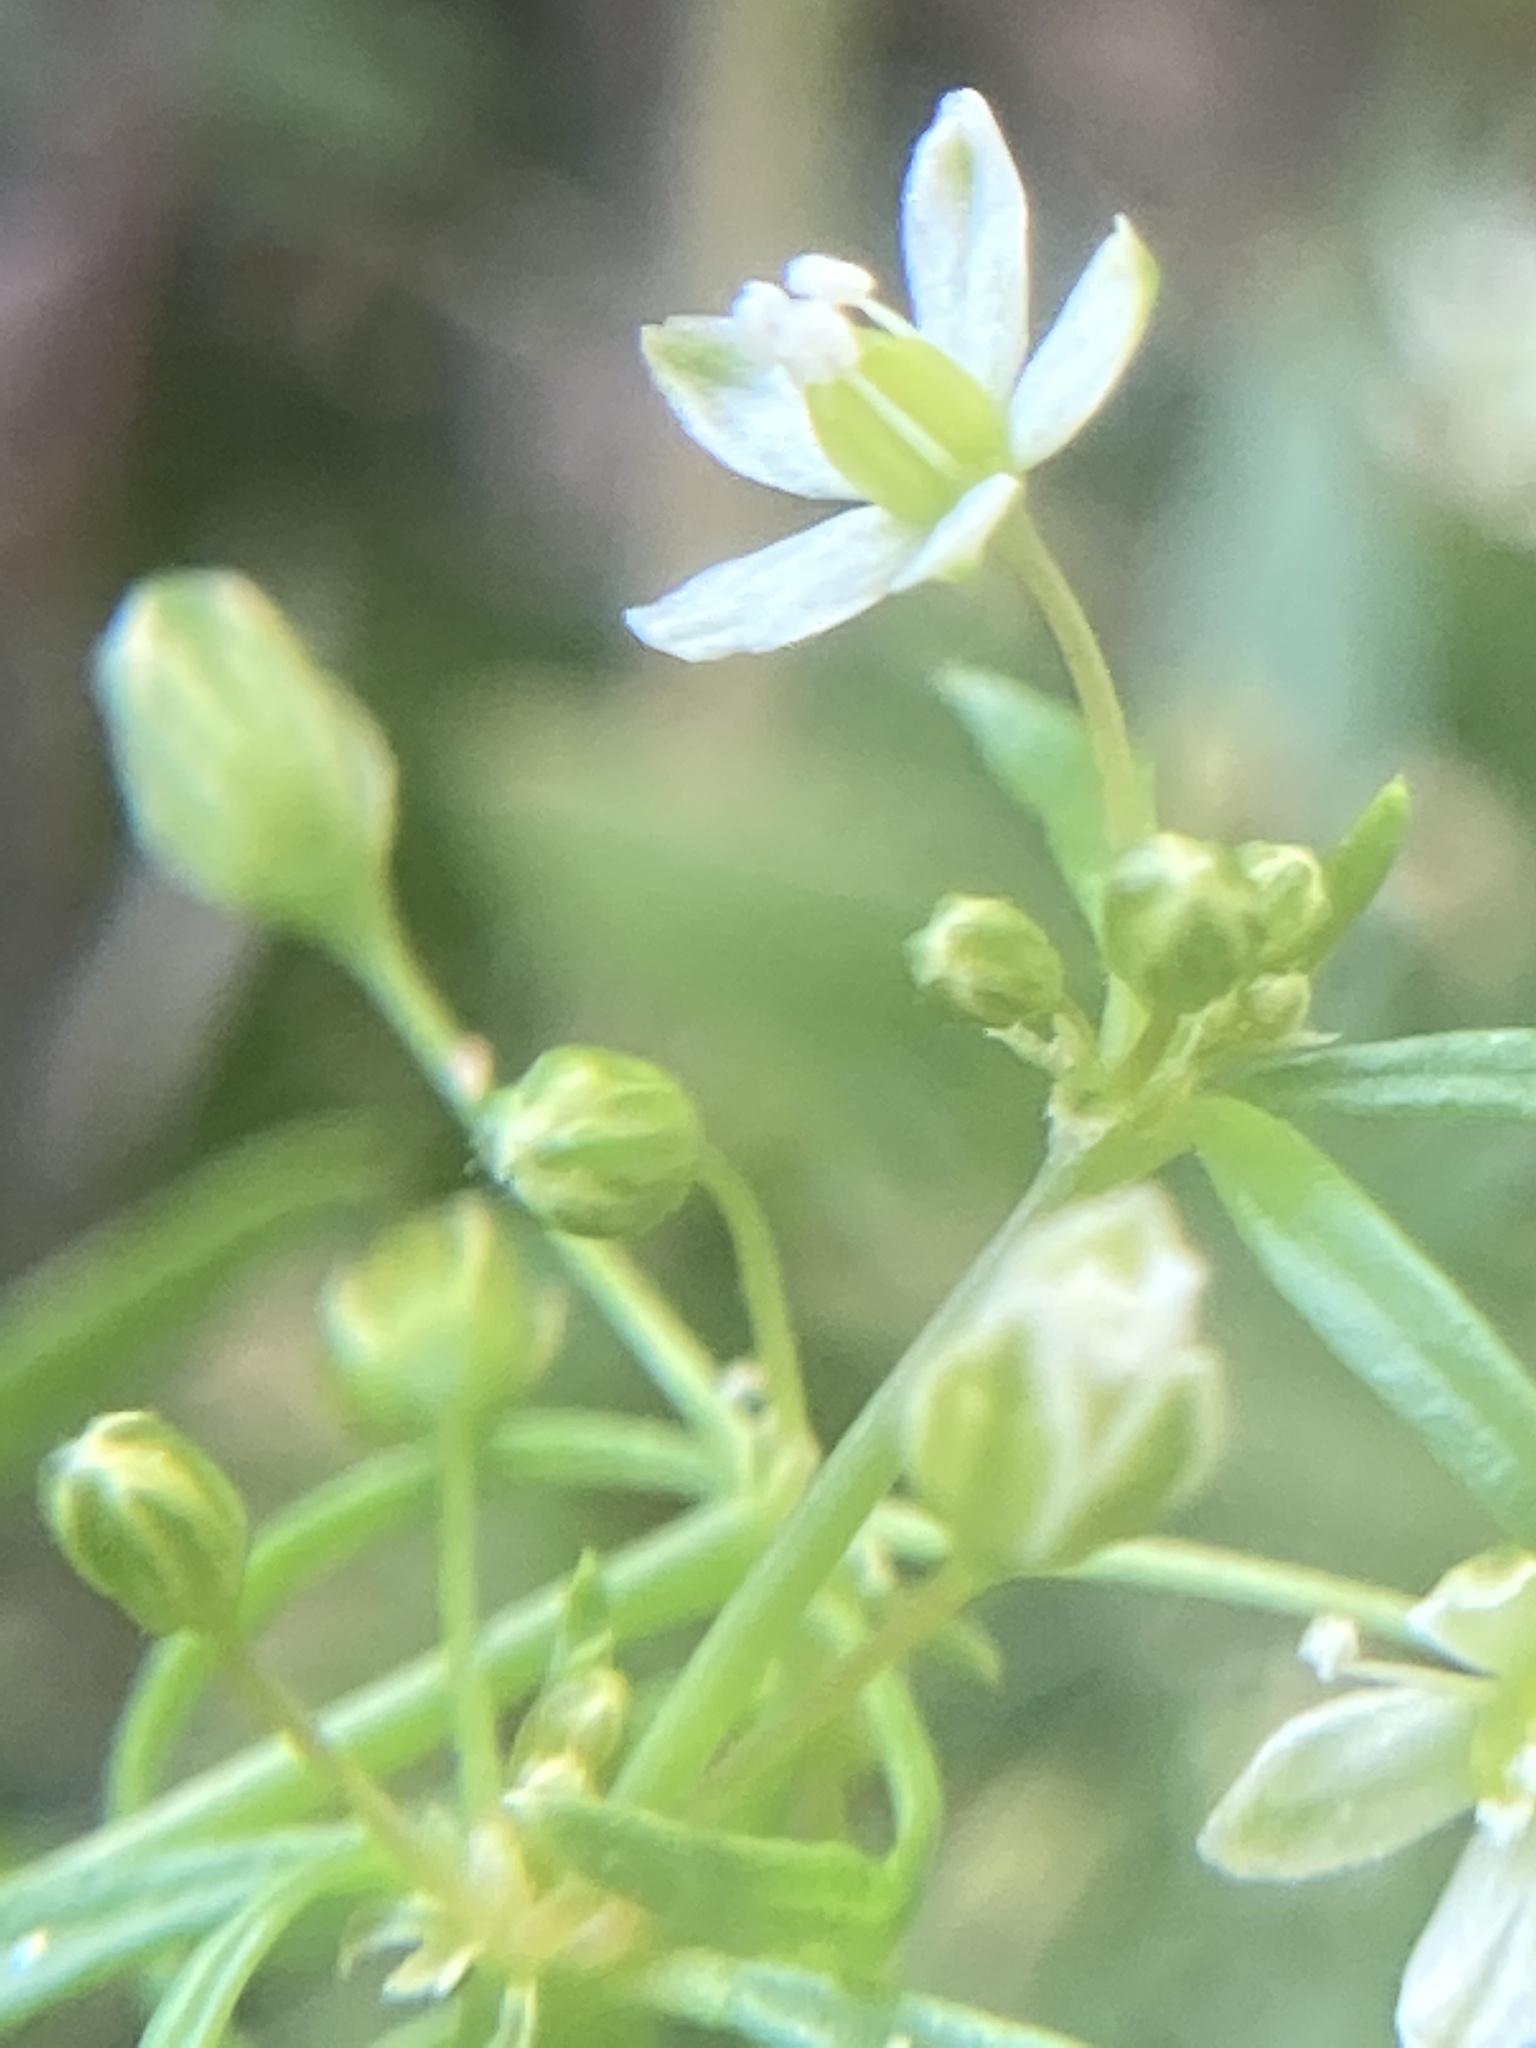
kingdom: Plantae
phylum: Tracheophyta
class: Magnoliopsida
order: Caryophyllales
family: Molluginaceae
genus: Mollugo
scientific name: Mollugo verticillata
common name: Green carpetweed
